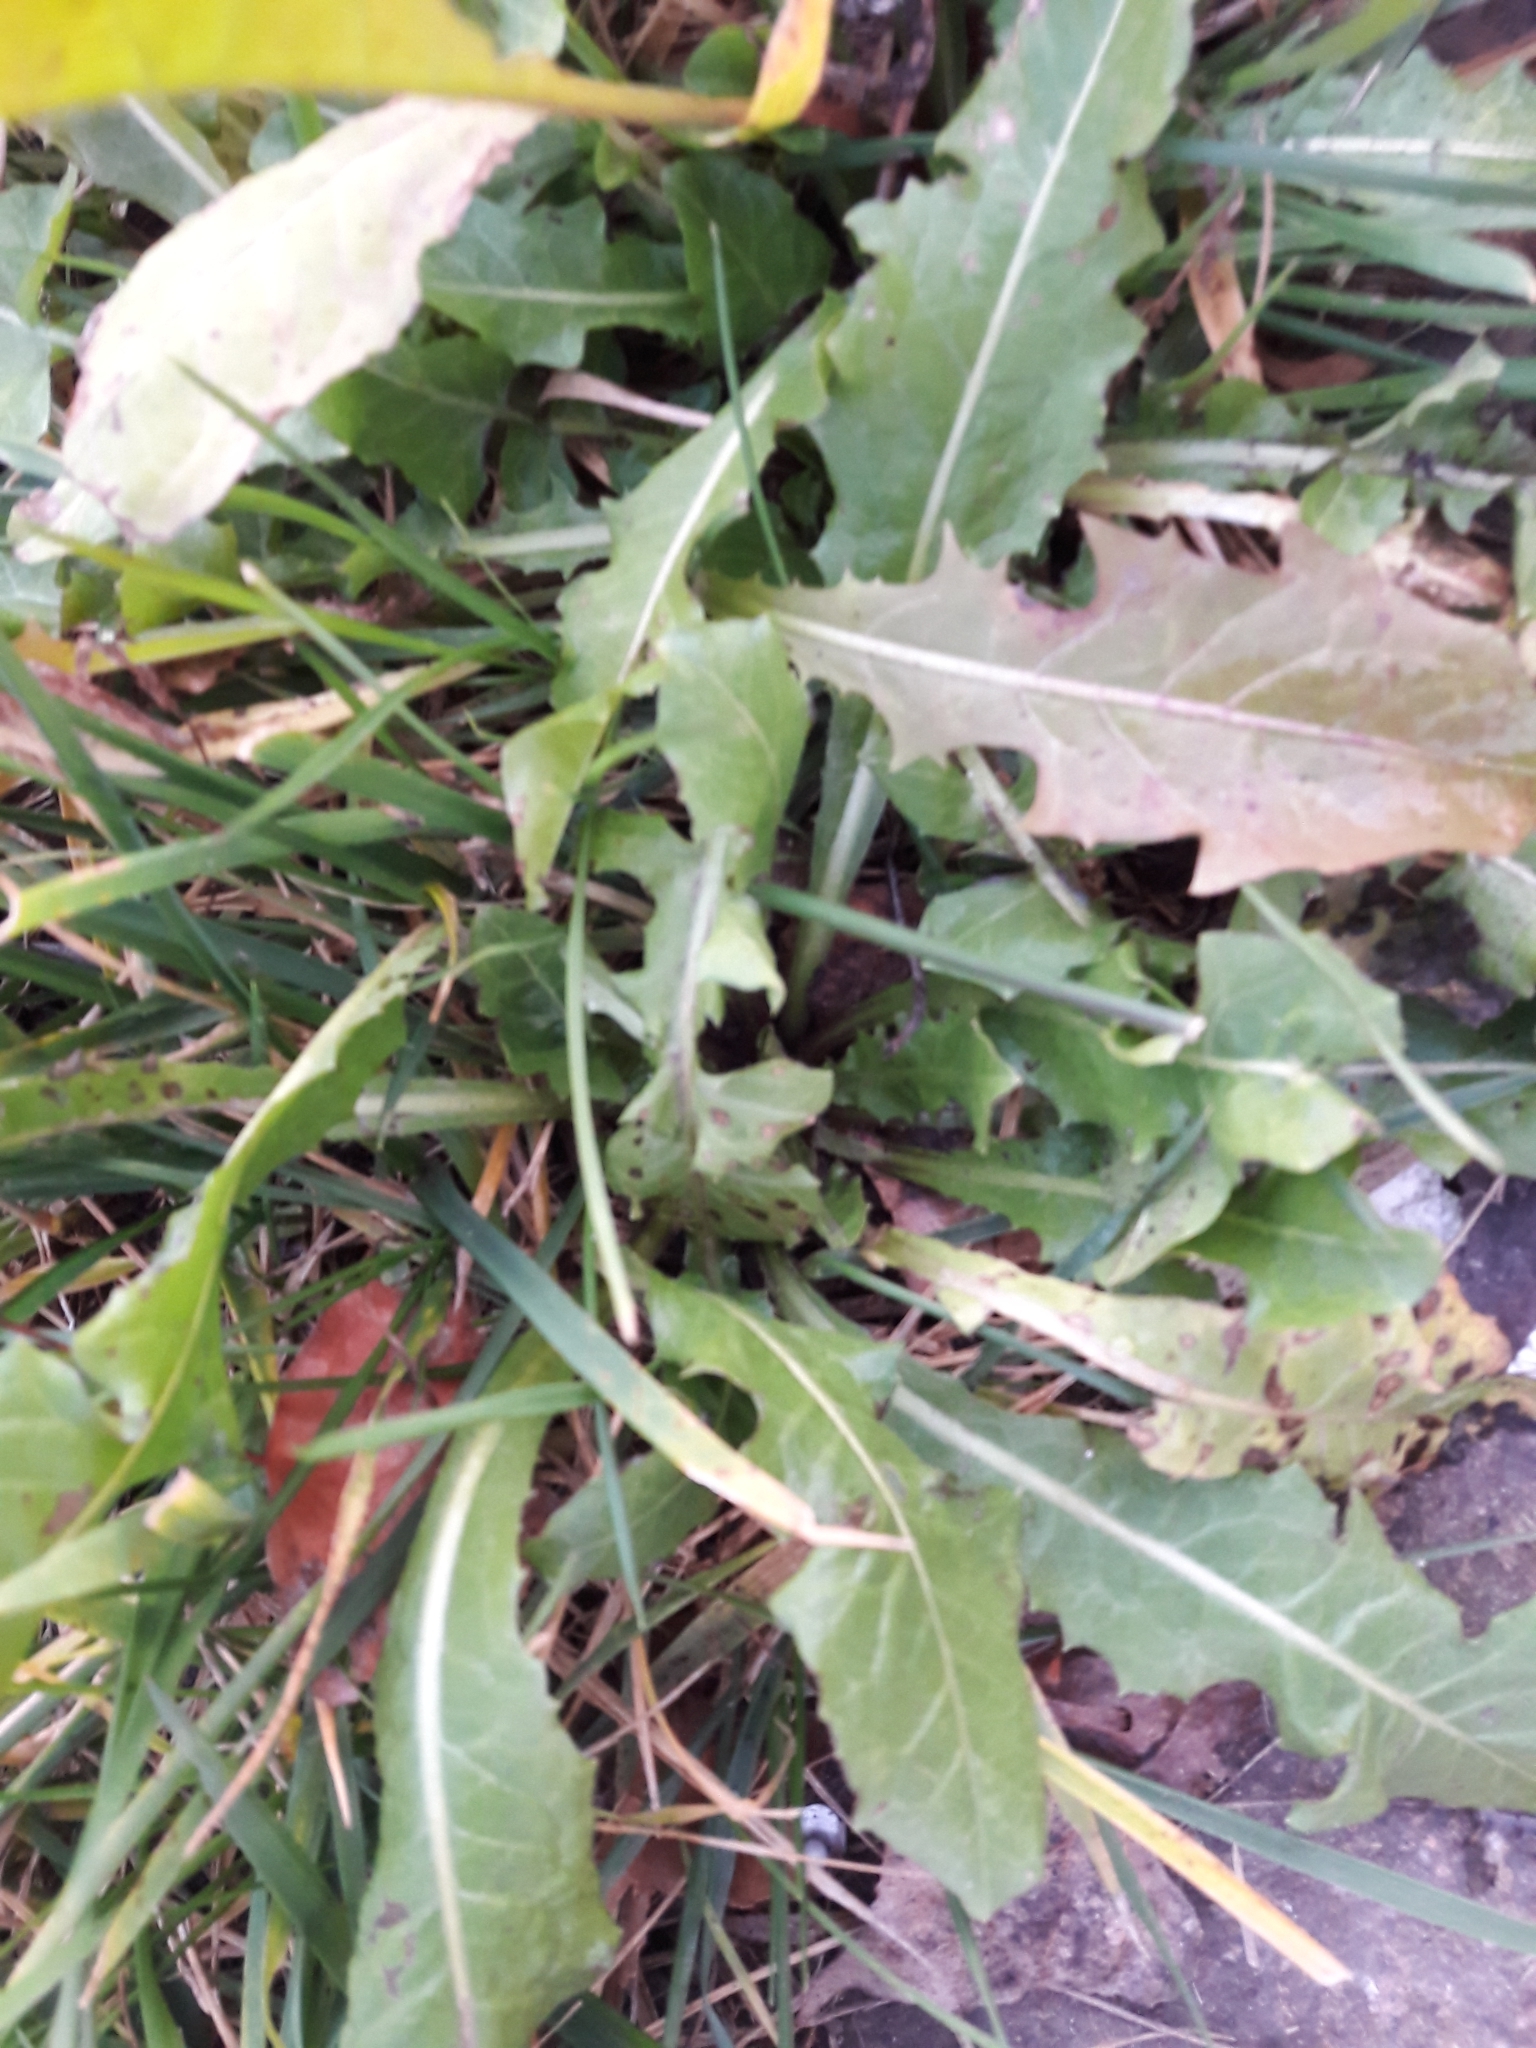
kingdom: Plantae
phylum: Tracheophyta
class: Magnoliopsida
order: Asterales
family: Asteraceae
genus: Taraxacum
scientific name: Taraxacum officinale
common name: Common dandelion
